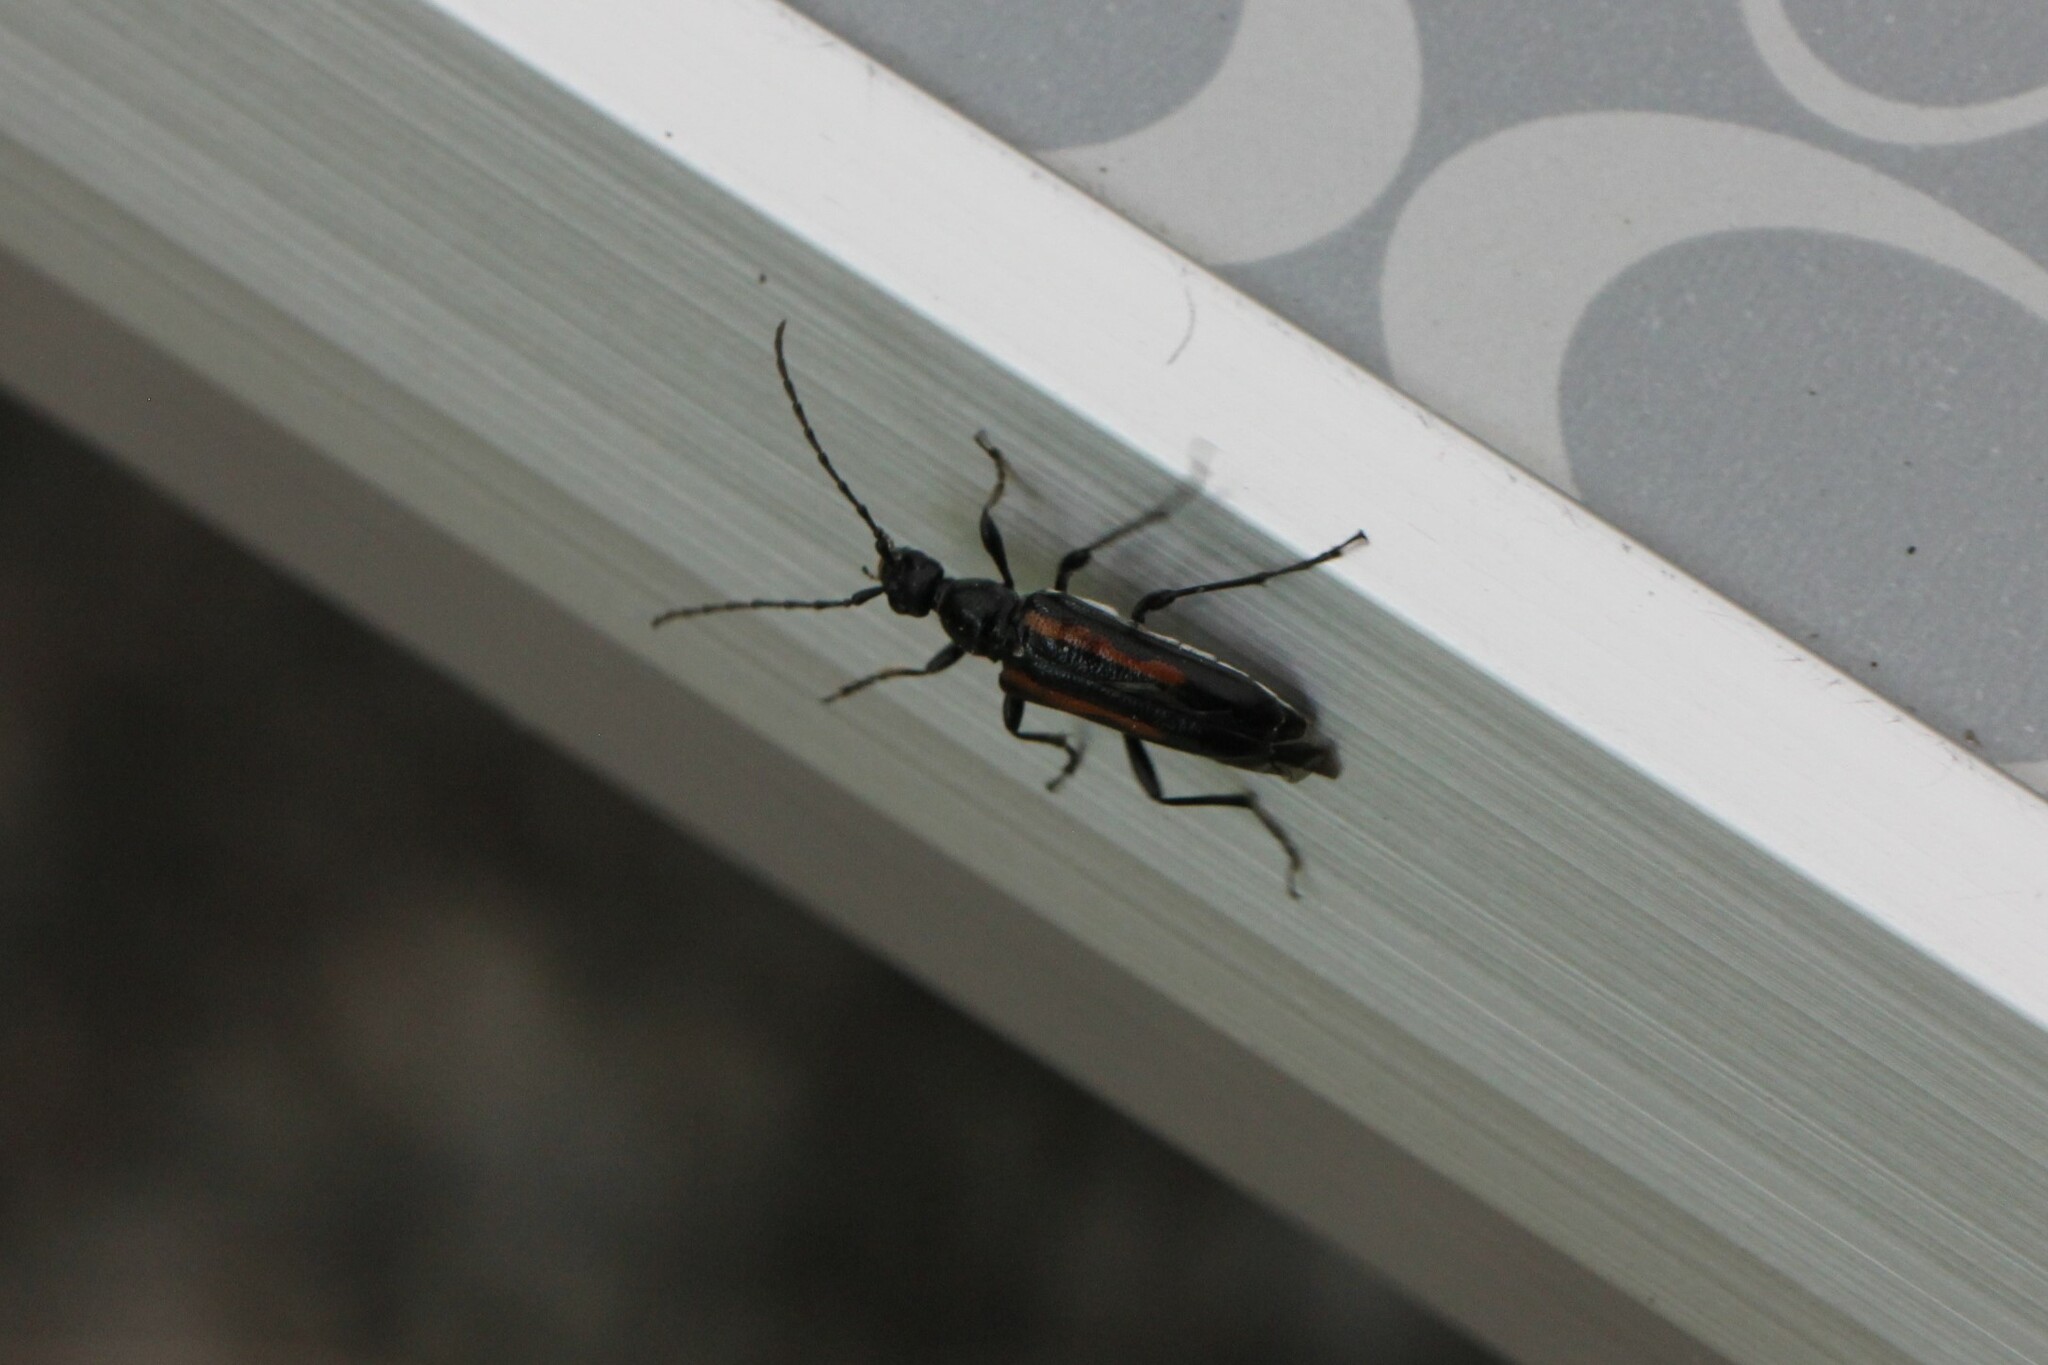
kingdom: Animalia
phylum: Arthropoda
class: Insecta
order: Coleoptera
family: Cerambycidae
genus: Strangalepta
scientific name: Strangalepta abbreviata
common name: Strangalepta flower longhorn beetle
